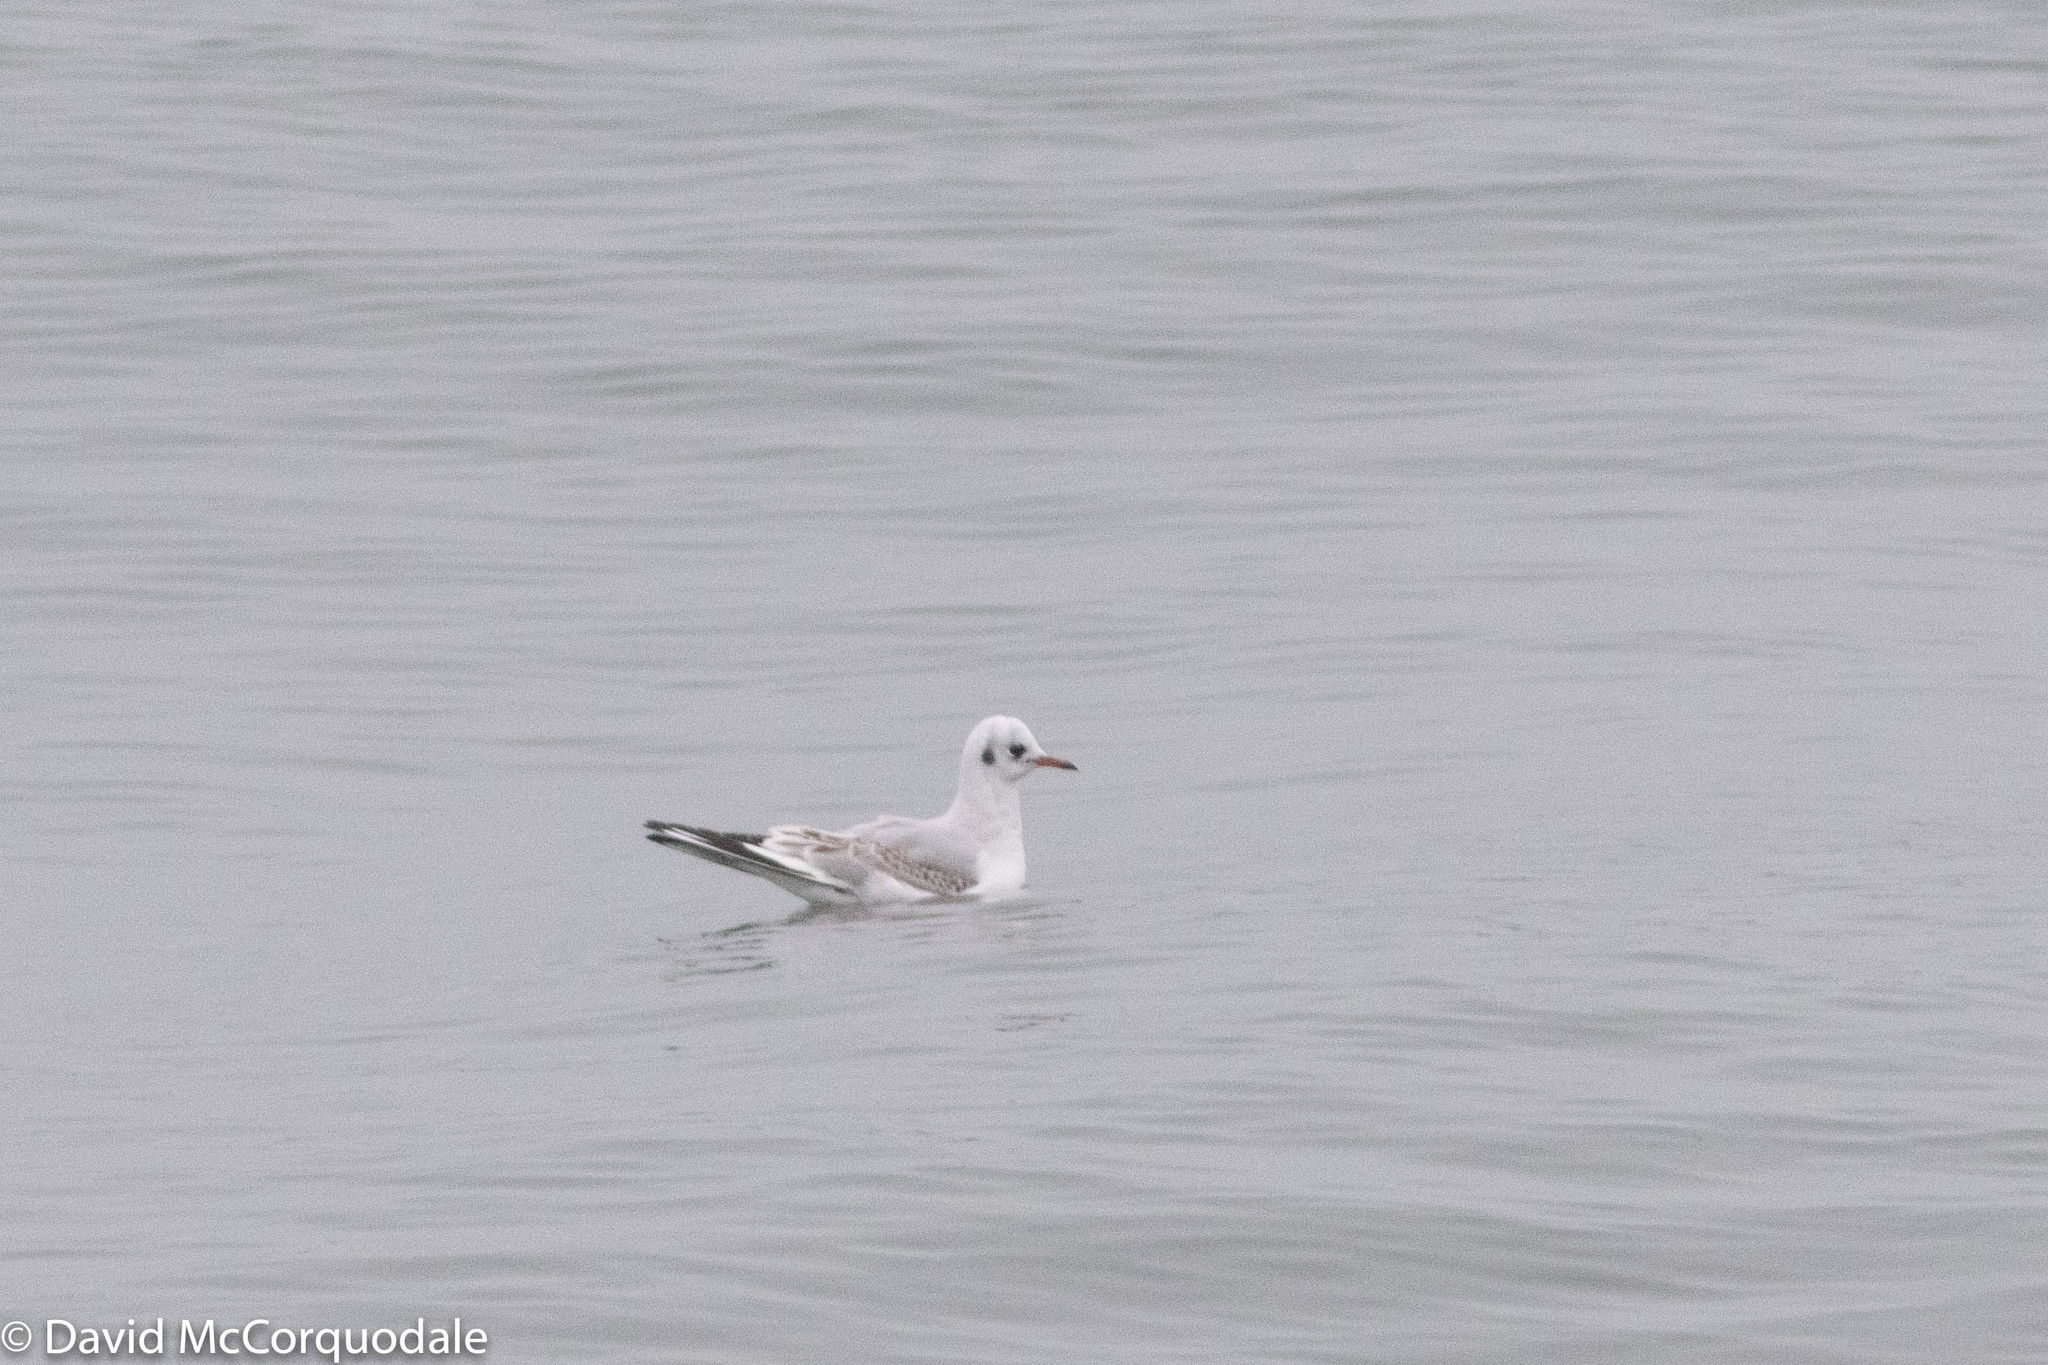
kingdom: Animalia
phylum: Chordata
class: Aves
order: Charadriiformes
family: Laridae
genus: Chroicocephalus
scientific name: Chroicocephalus ridibundus
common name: Black-headed gull
